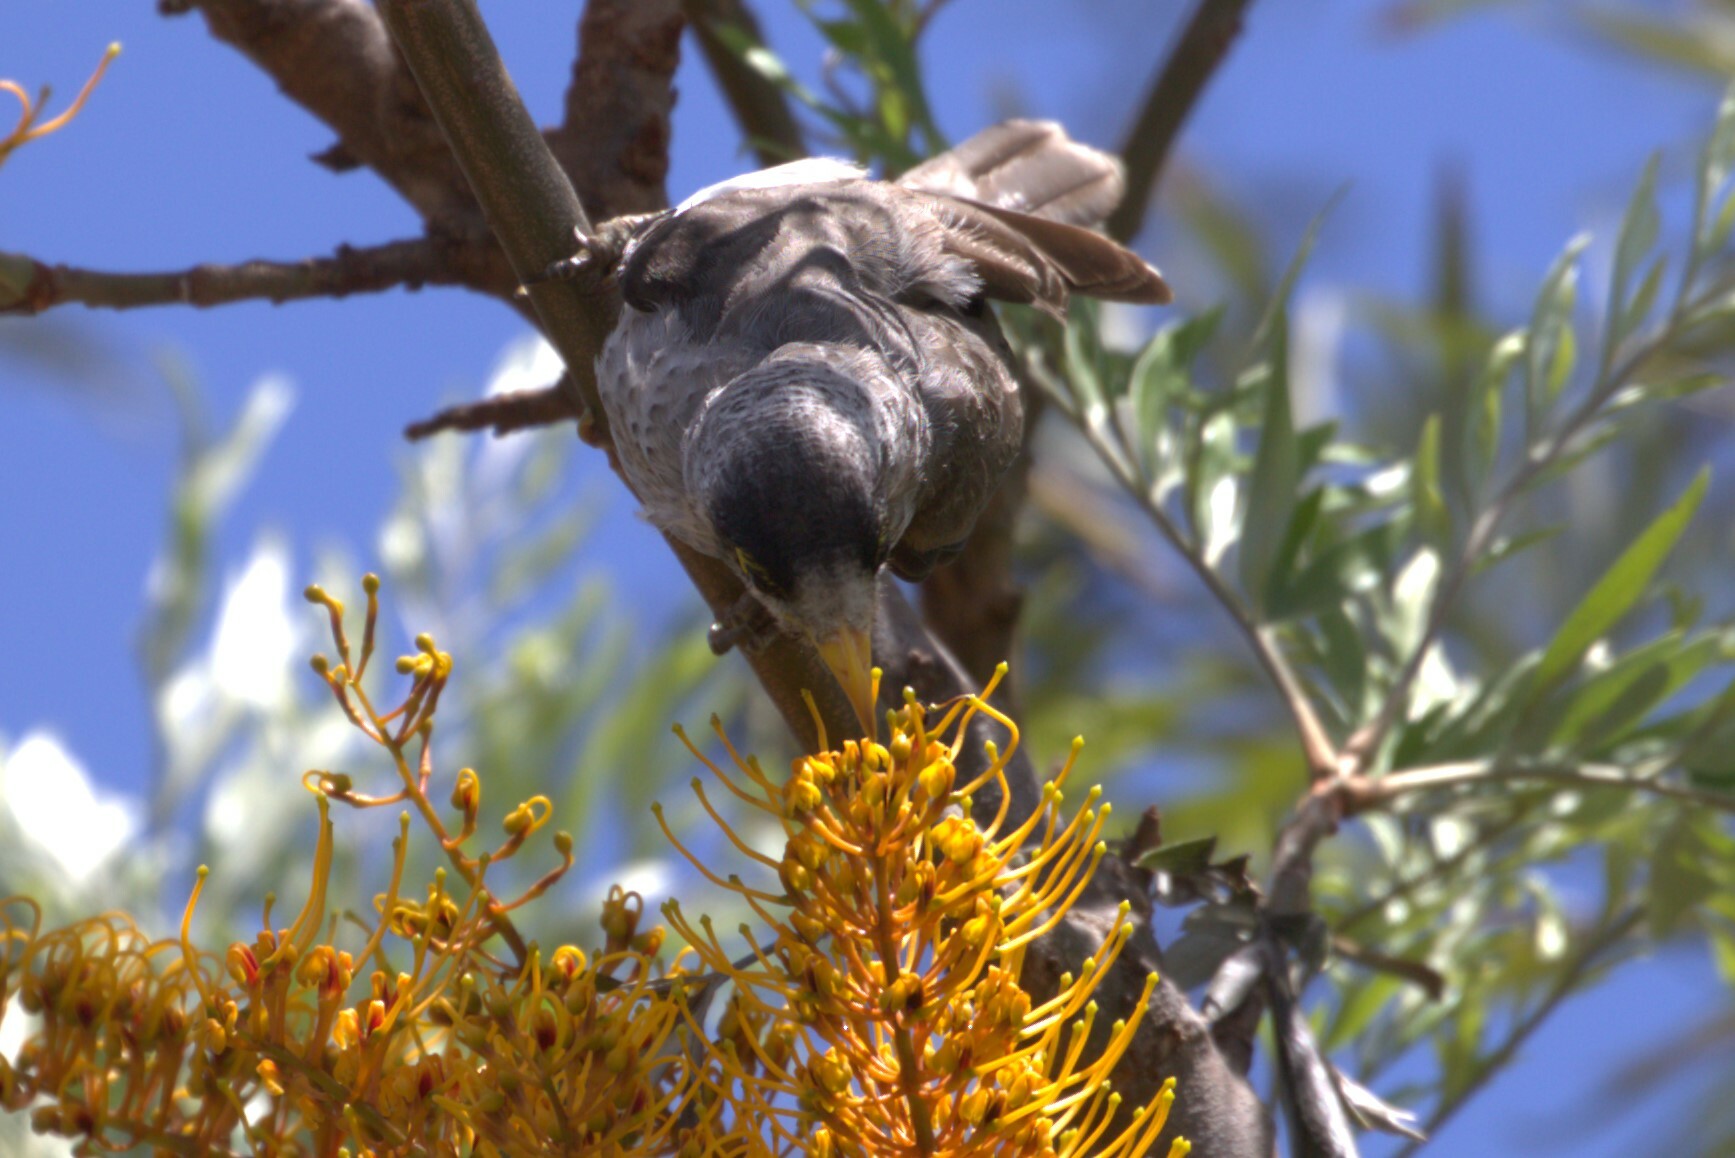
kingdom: Animalia
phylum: Chordata
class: Aves
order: Passeriformes
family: Meliphagidae
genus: Manorina
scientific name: Manorina melanocephala
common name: Noisy miner
